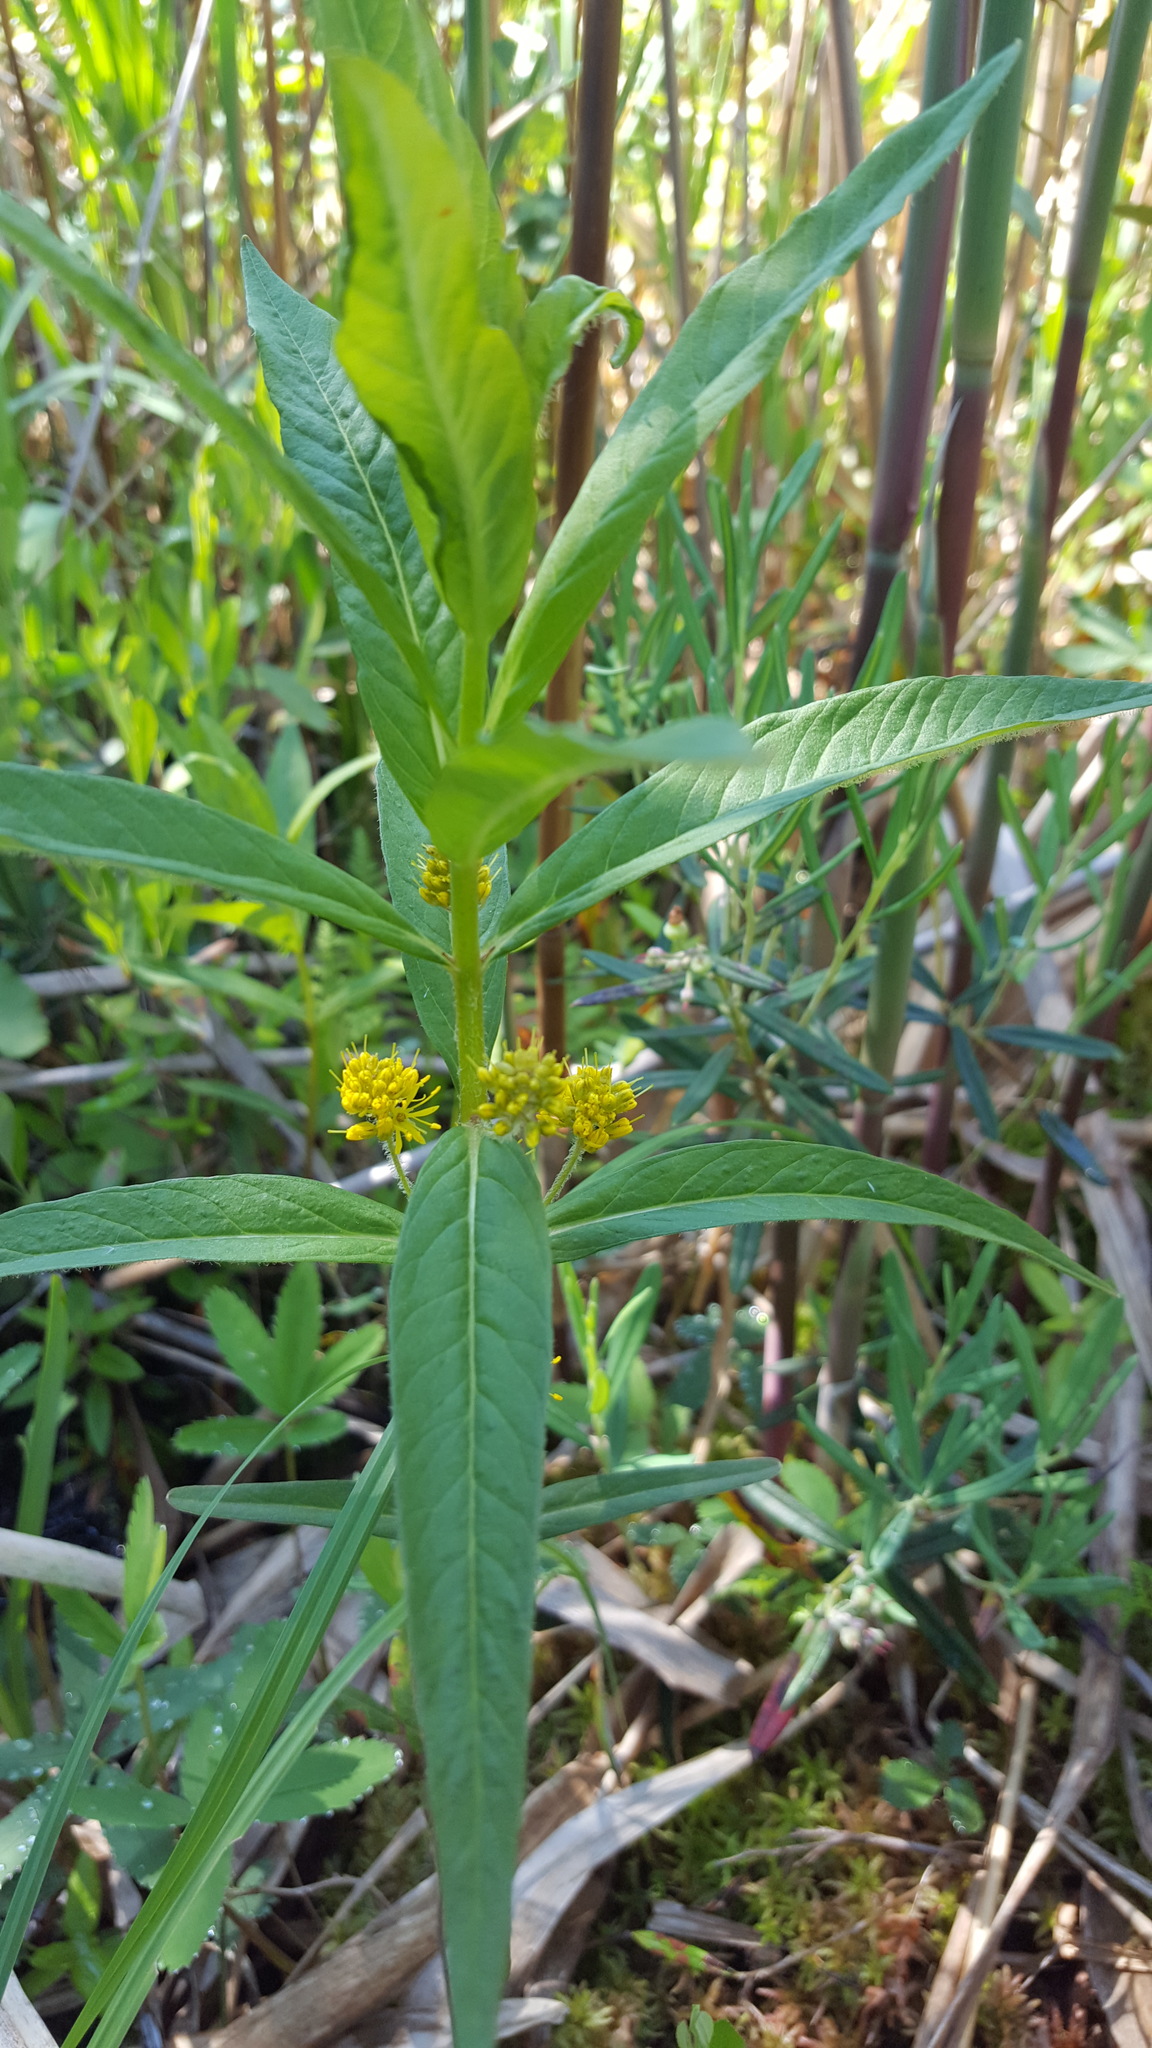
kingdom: Plantae
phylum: Tracheophyta
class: Magnoliopsida
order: Ericales
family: Primulaceae
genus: Lysimachia
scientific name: Lysimachia thyrsiflora
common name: Tufted loosestrife
